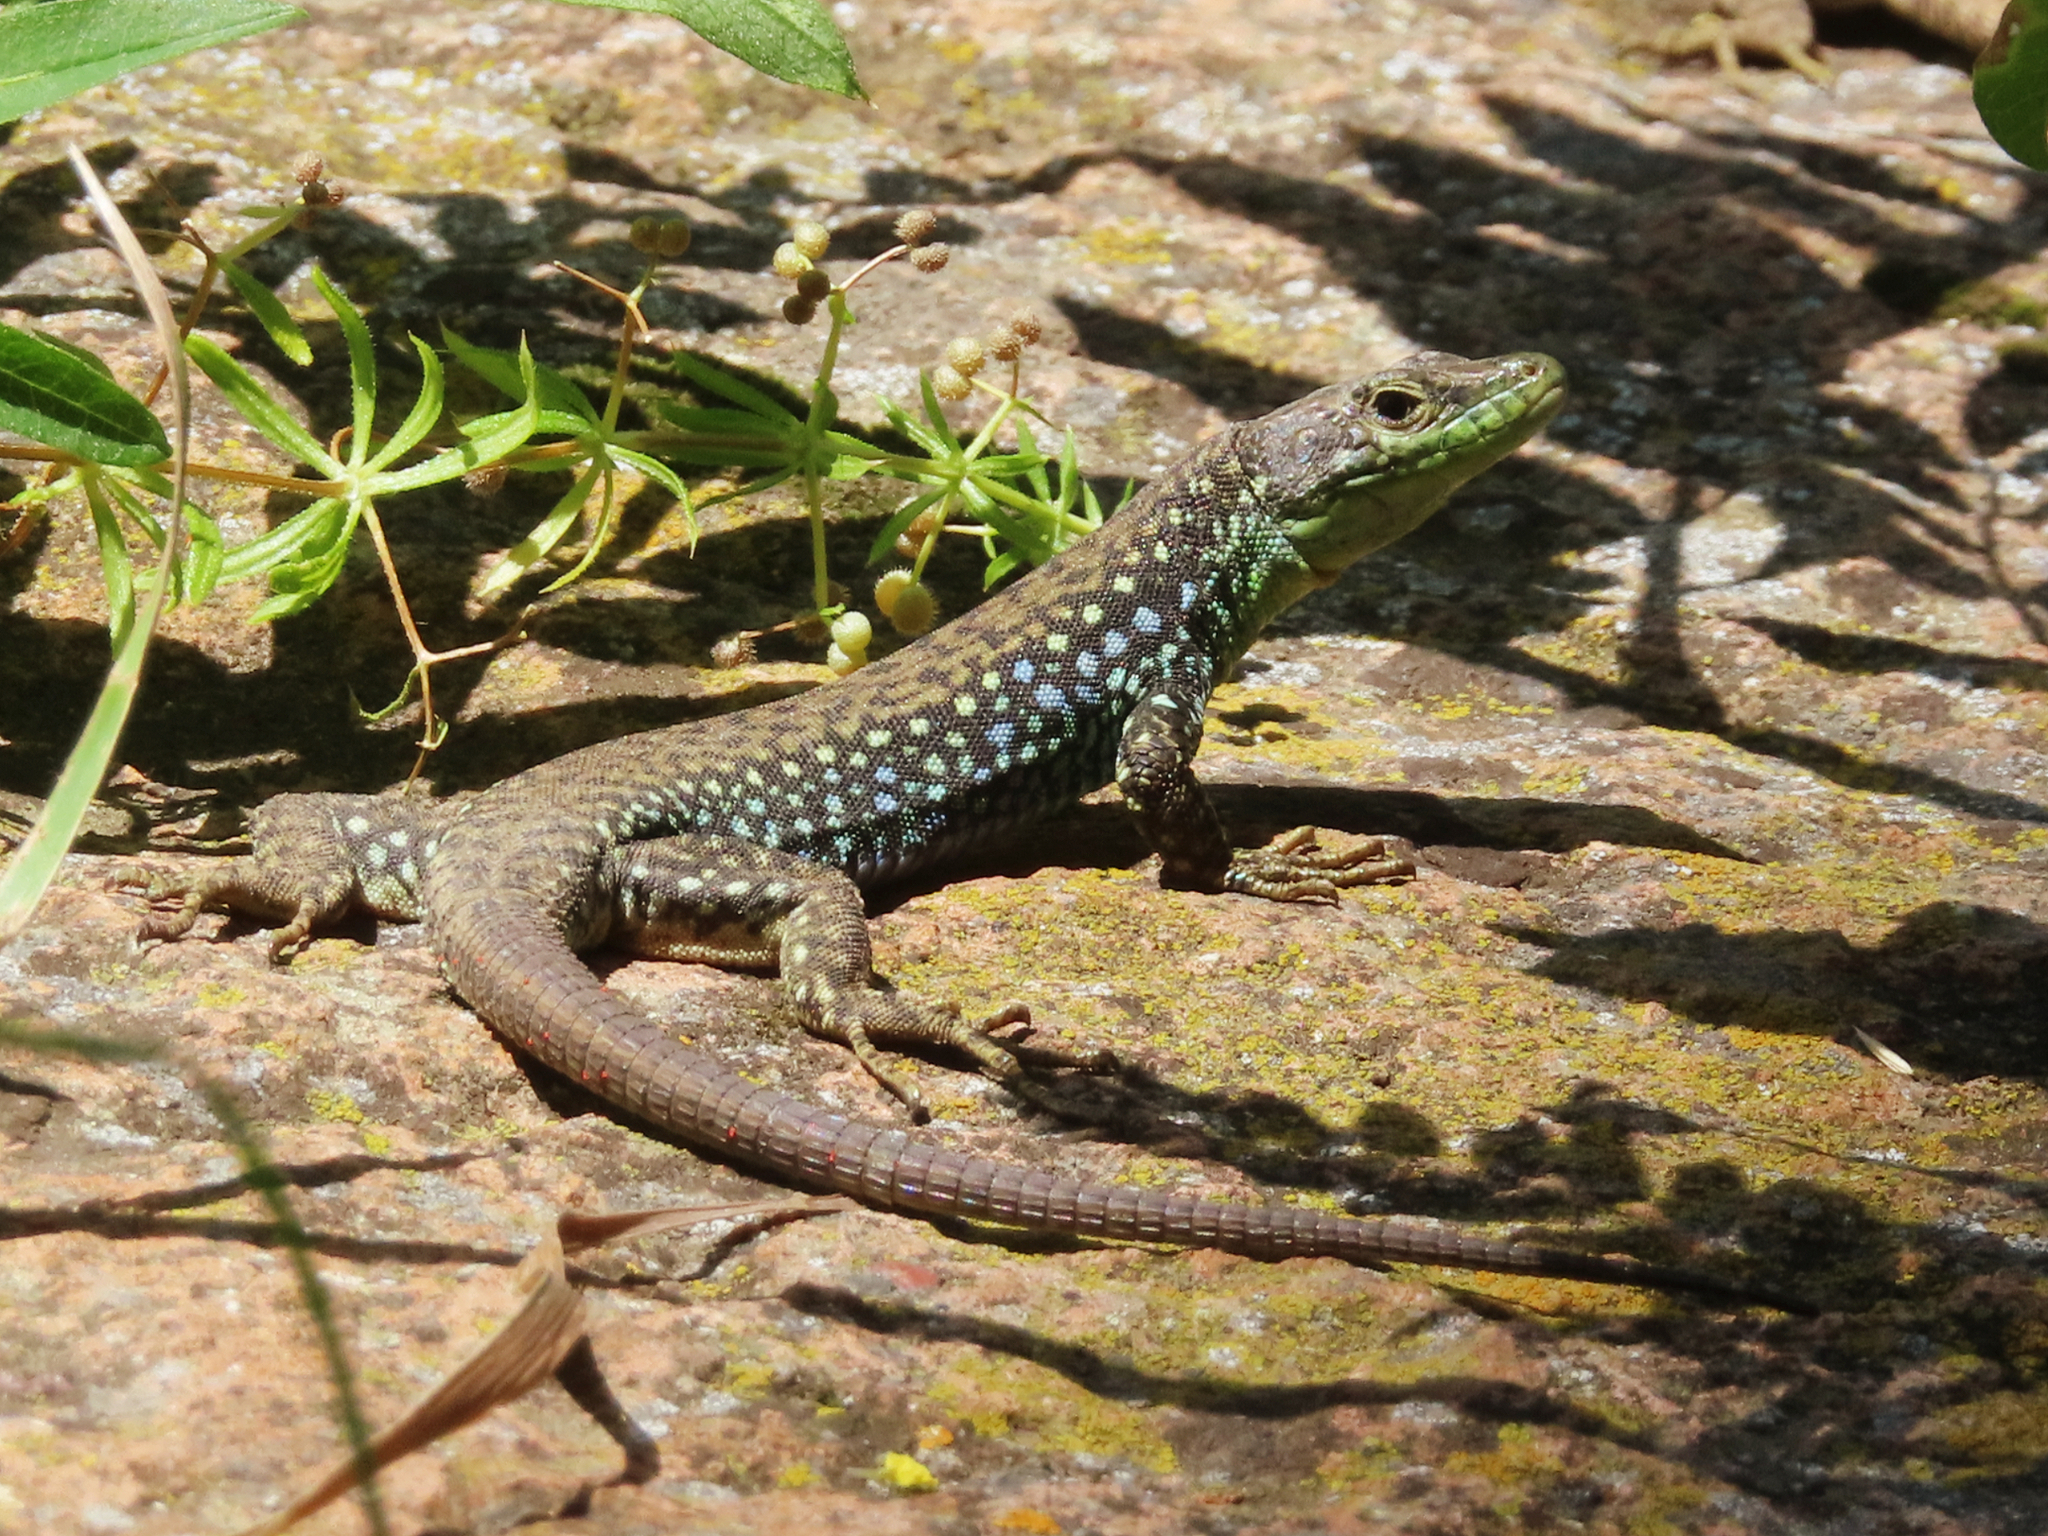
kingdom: Animalia
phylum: Chordata
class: Squamata
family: Lacertidae
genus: Darevskia
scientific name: Darevskia
